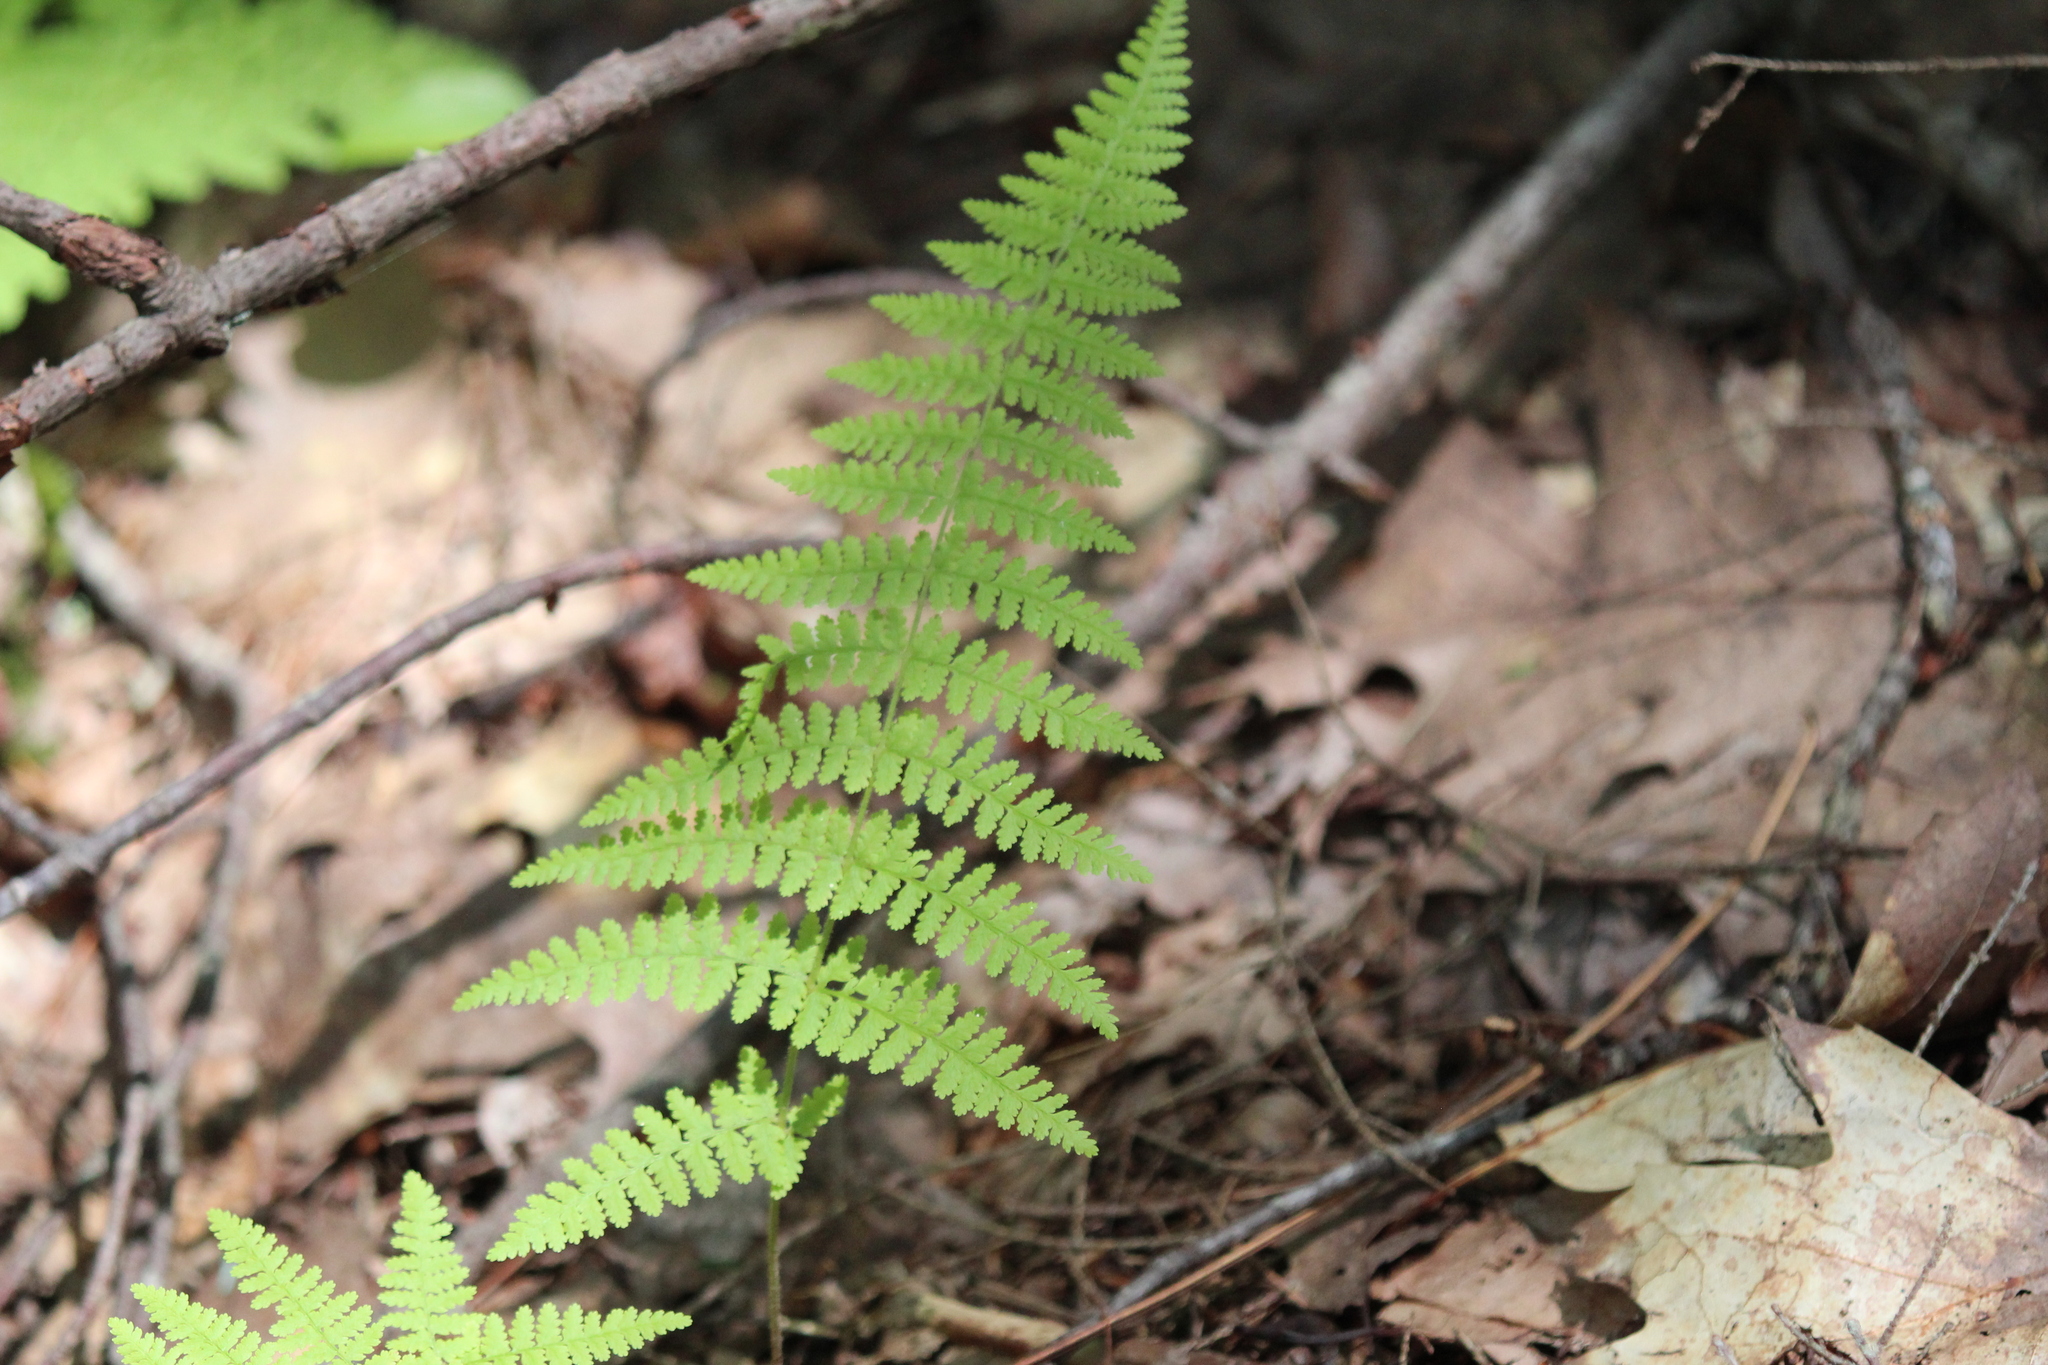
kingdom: Plantae
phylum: Tracheophyta
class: Polypodiopsida
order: Polypodiales
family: Dennstaedtiaceae
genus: Sitobolium
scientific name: Sitobolium punctilobum
